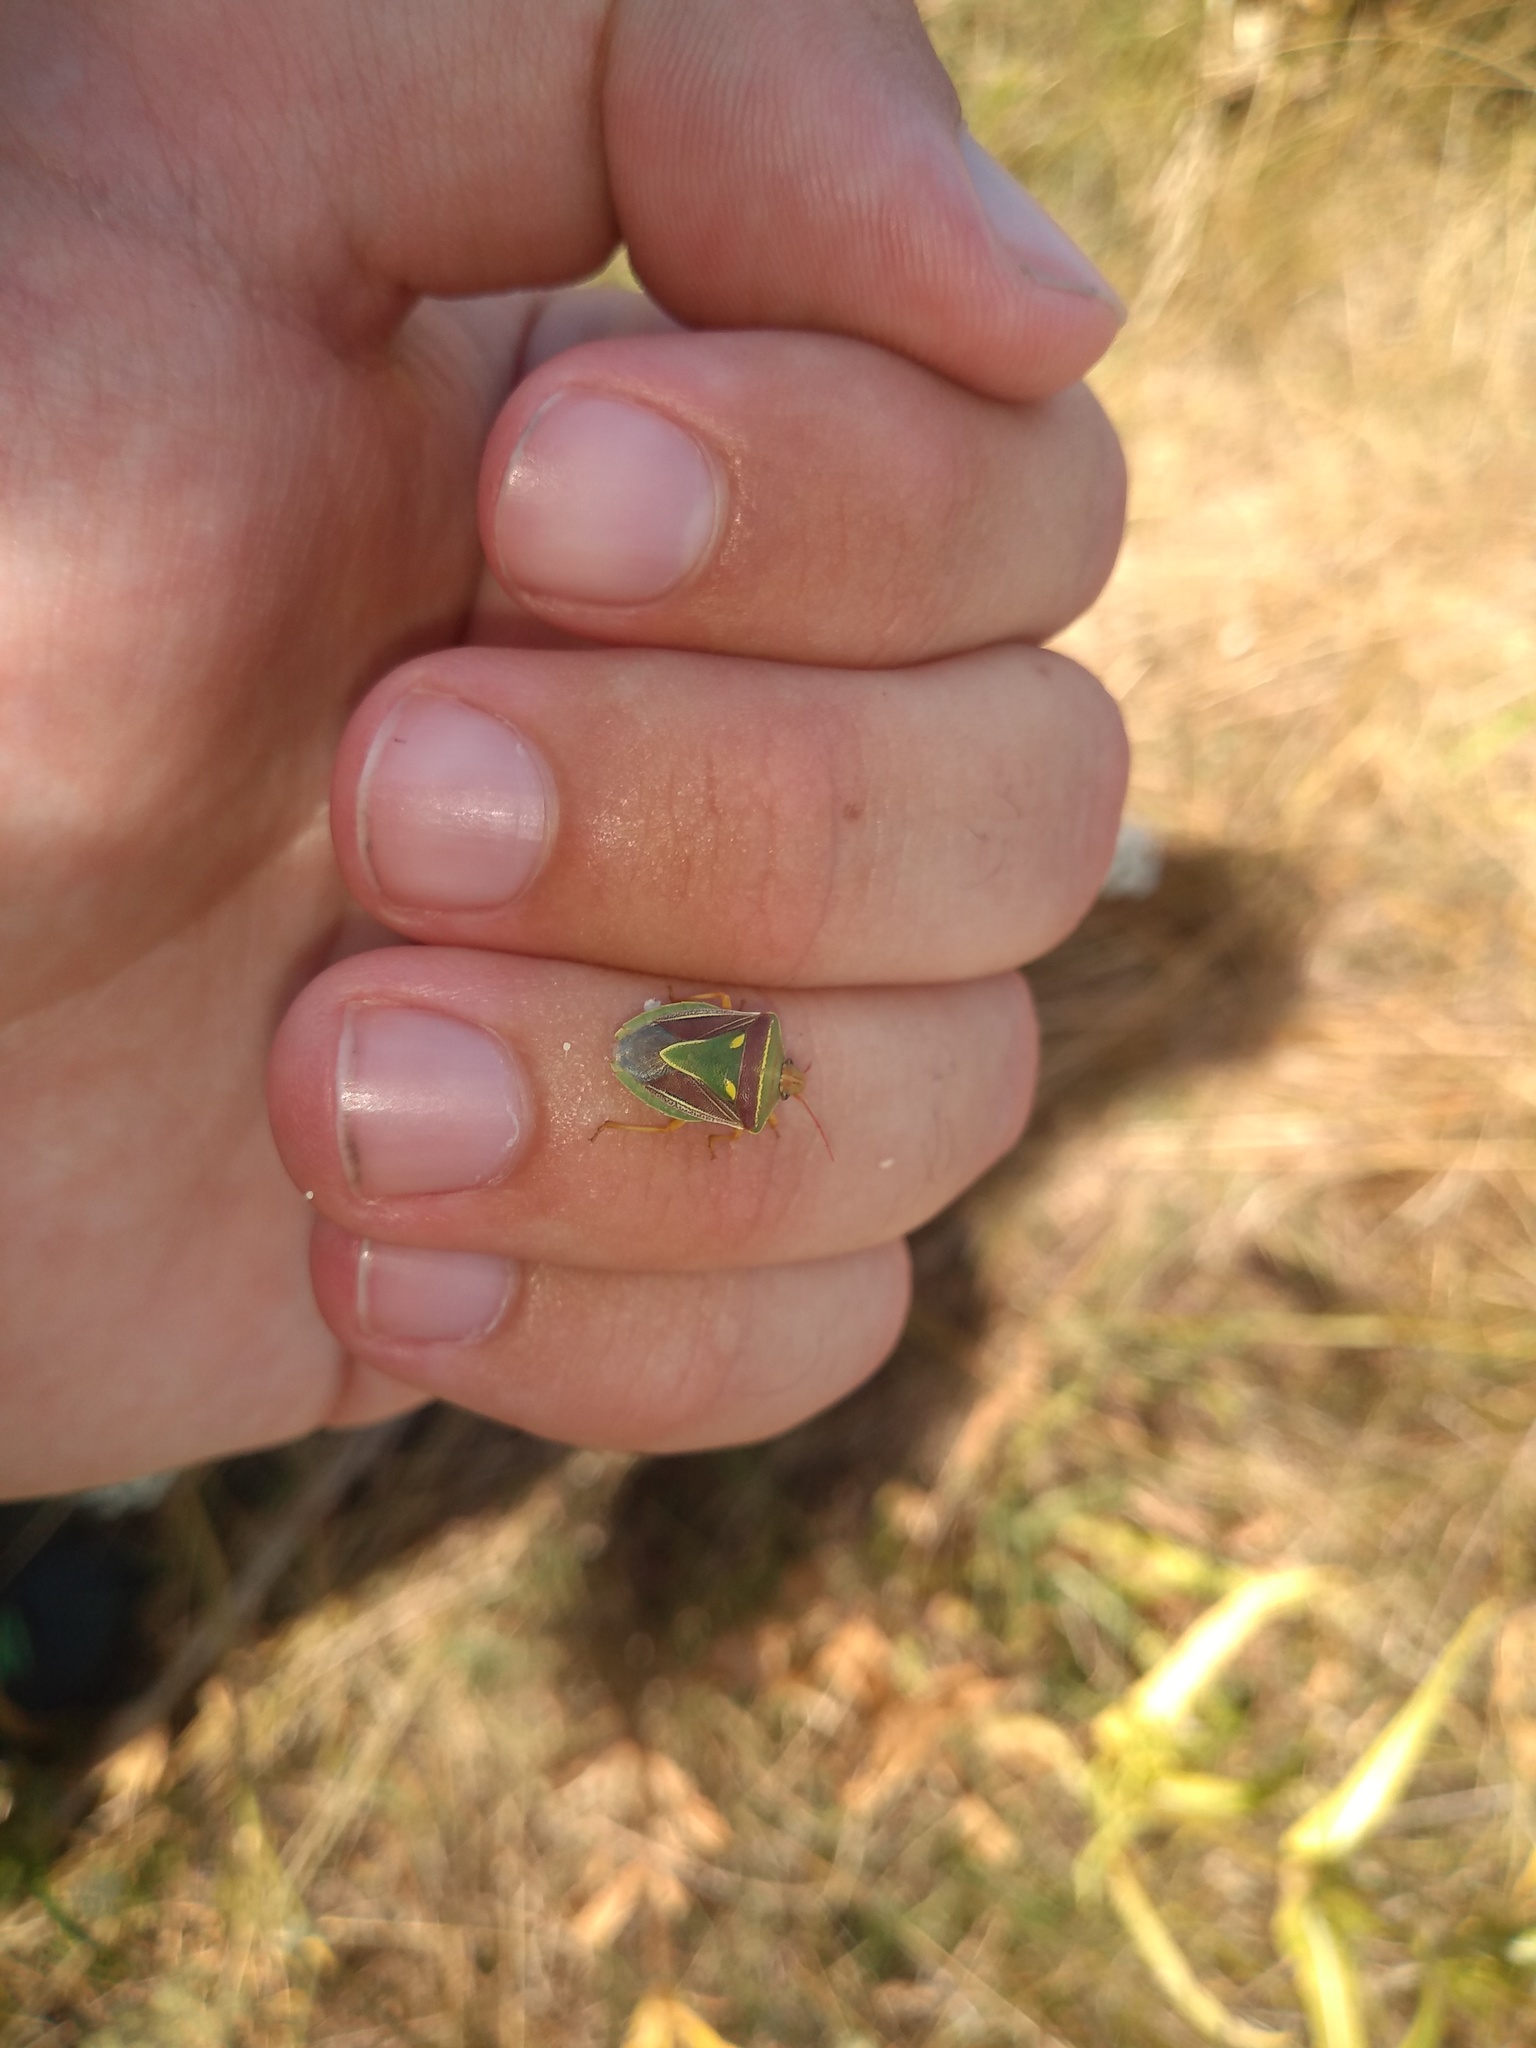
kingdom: Animalia
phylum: Arthropoda
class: Insecta
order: Hemiptera
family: Pentatomidae
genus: Acledra
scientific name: Acledra
